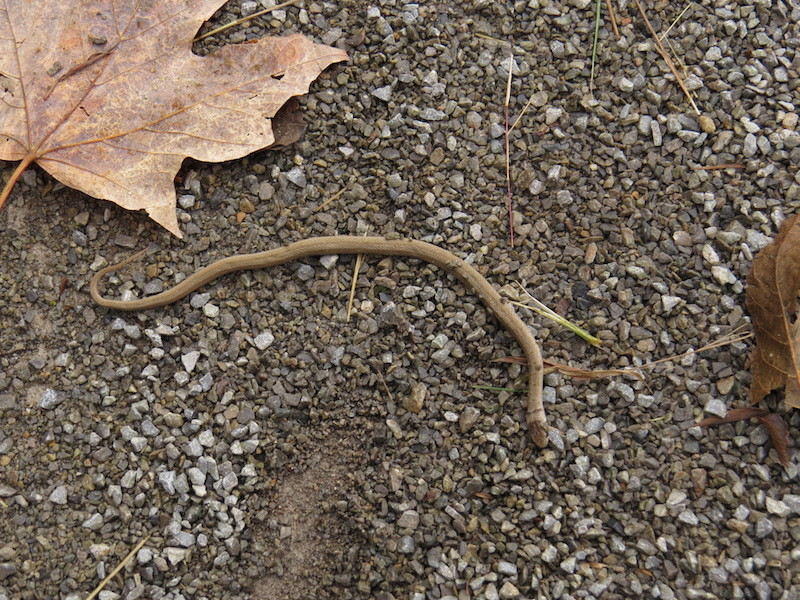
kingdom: Animalia
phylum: Chordata
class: Squamata
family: Colubridae
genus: Storeria
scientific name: Storeria dekayi
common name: (dekay’s) brown snake
